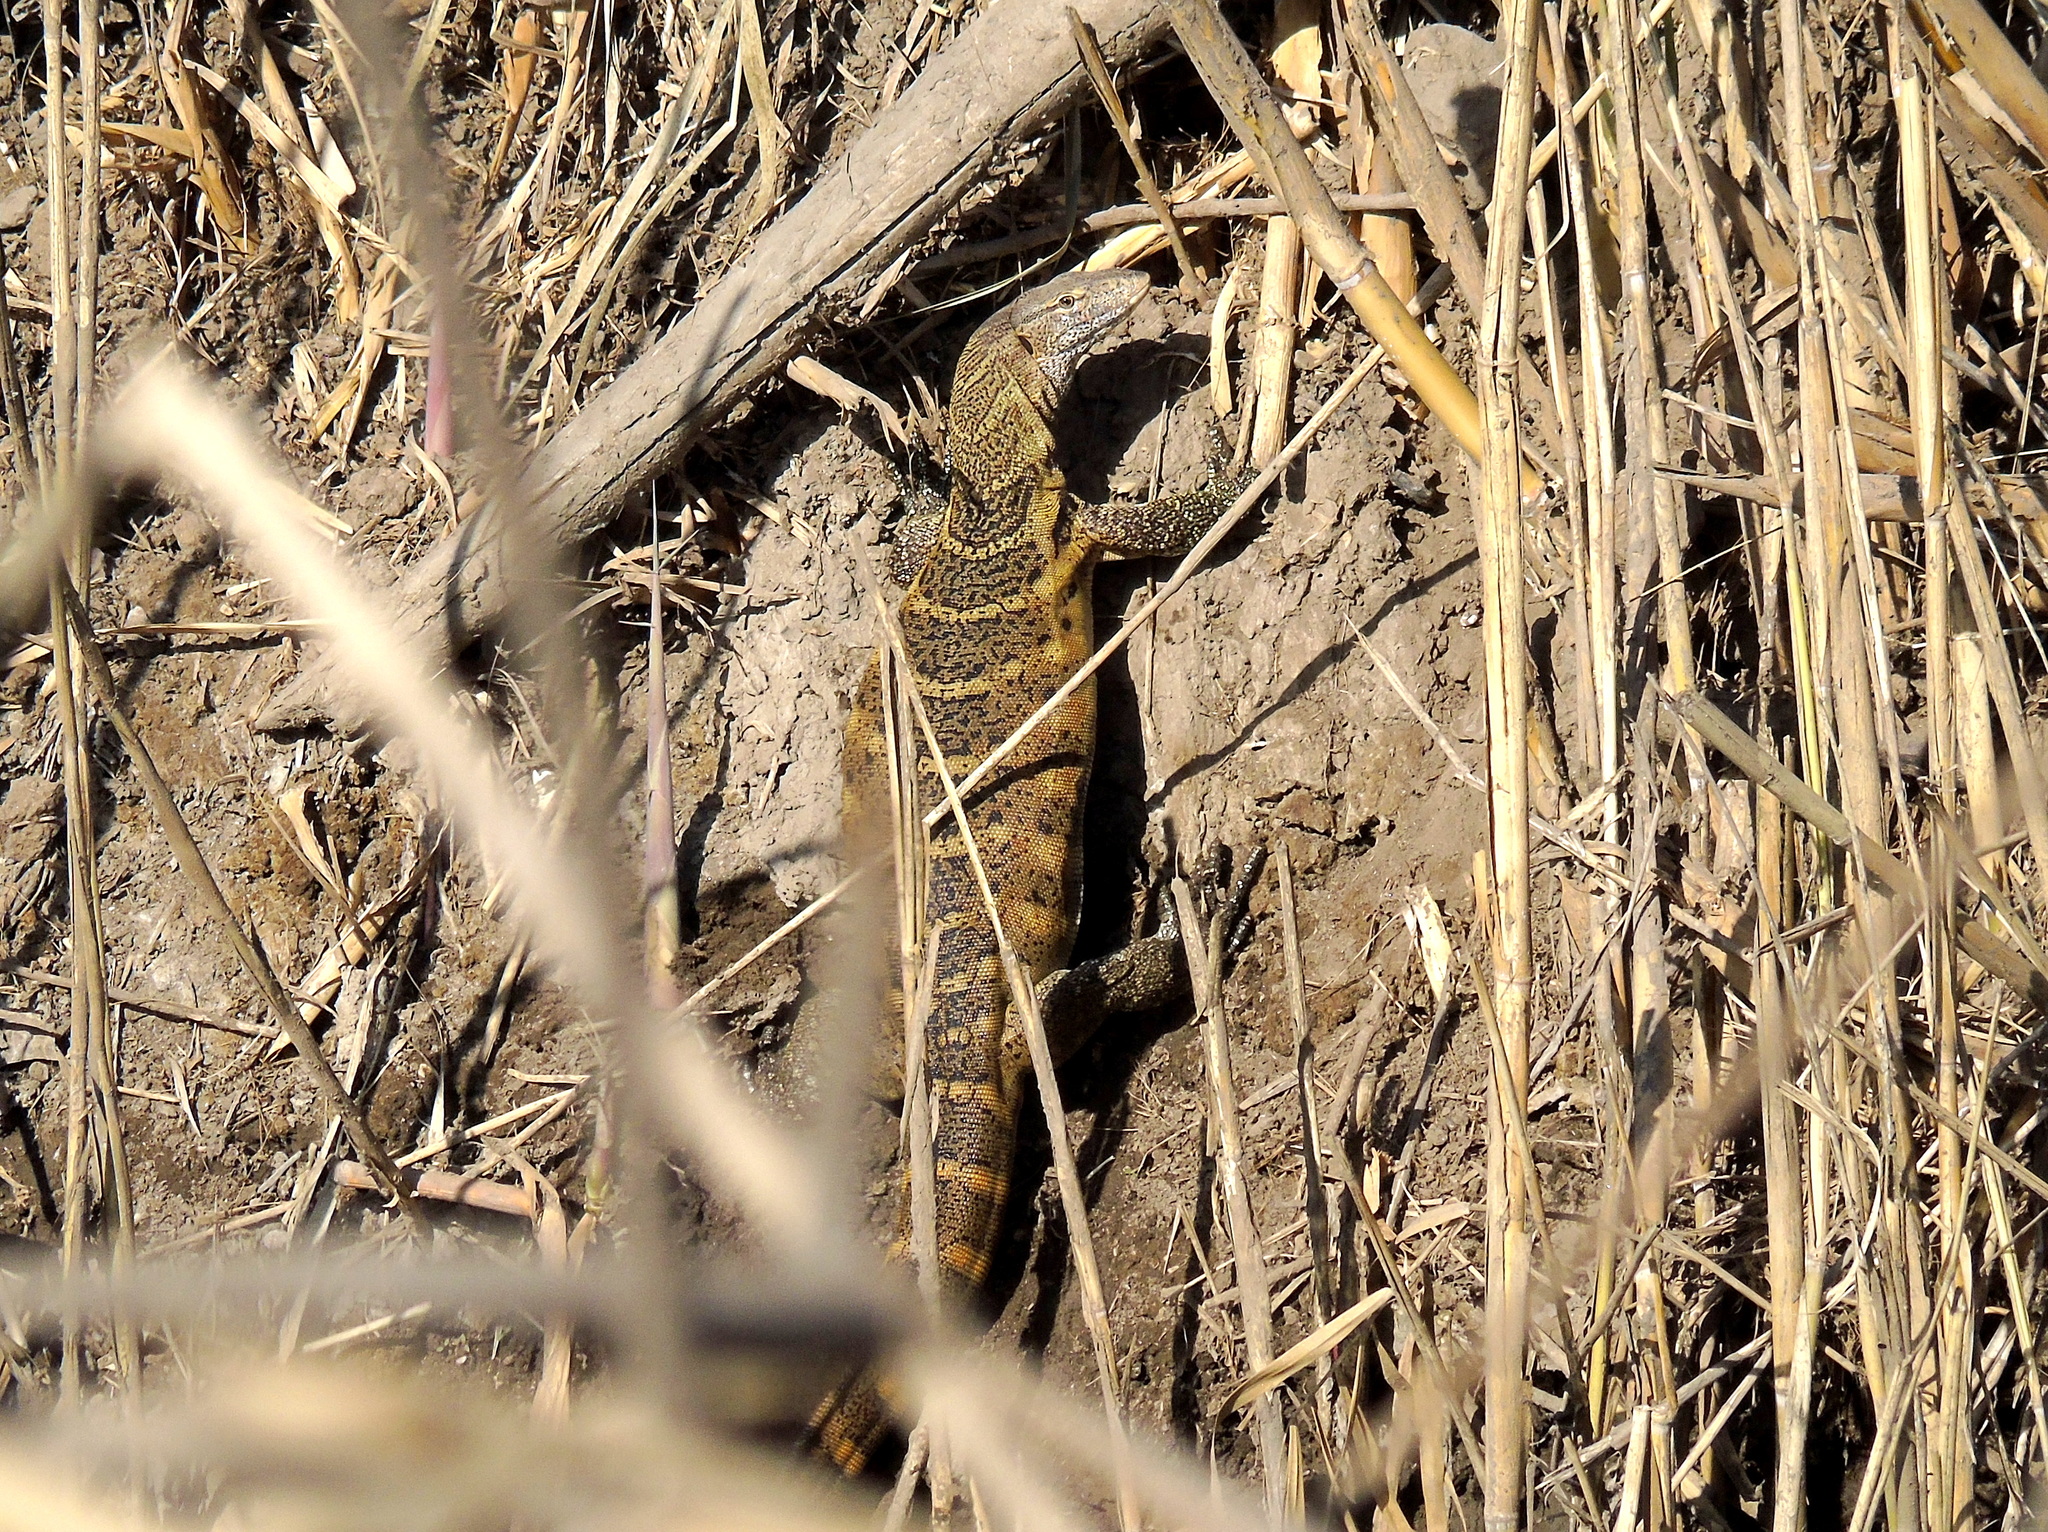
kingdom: Animalia
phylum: Chordata
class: Squamata
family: Varanidae
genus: Varanus
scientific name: Varanus niloticus
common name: Nile monitor
